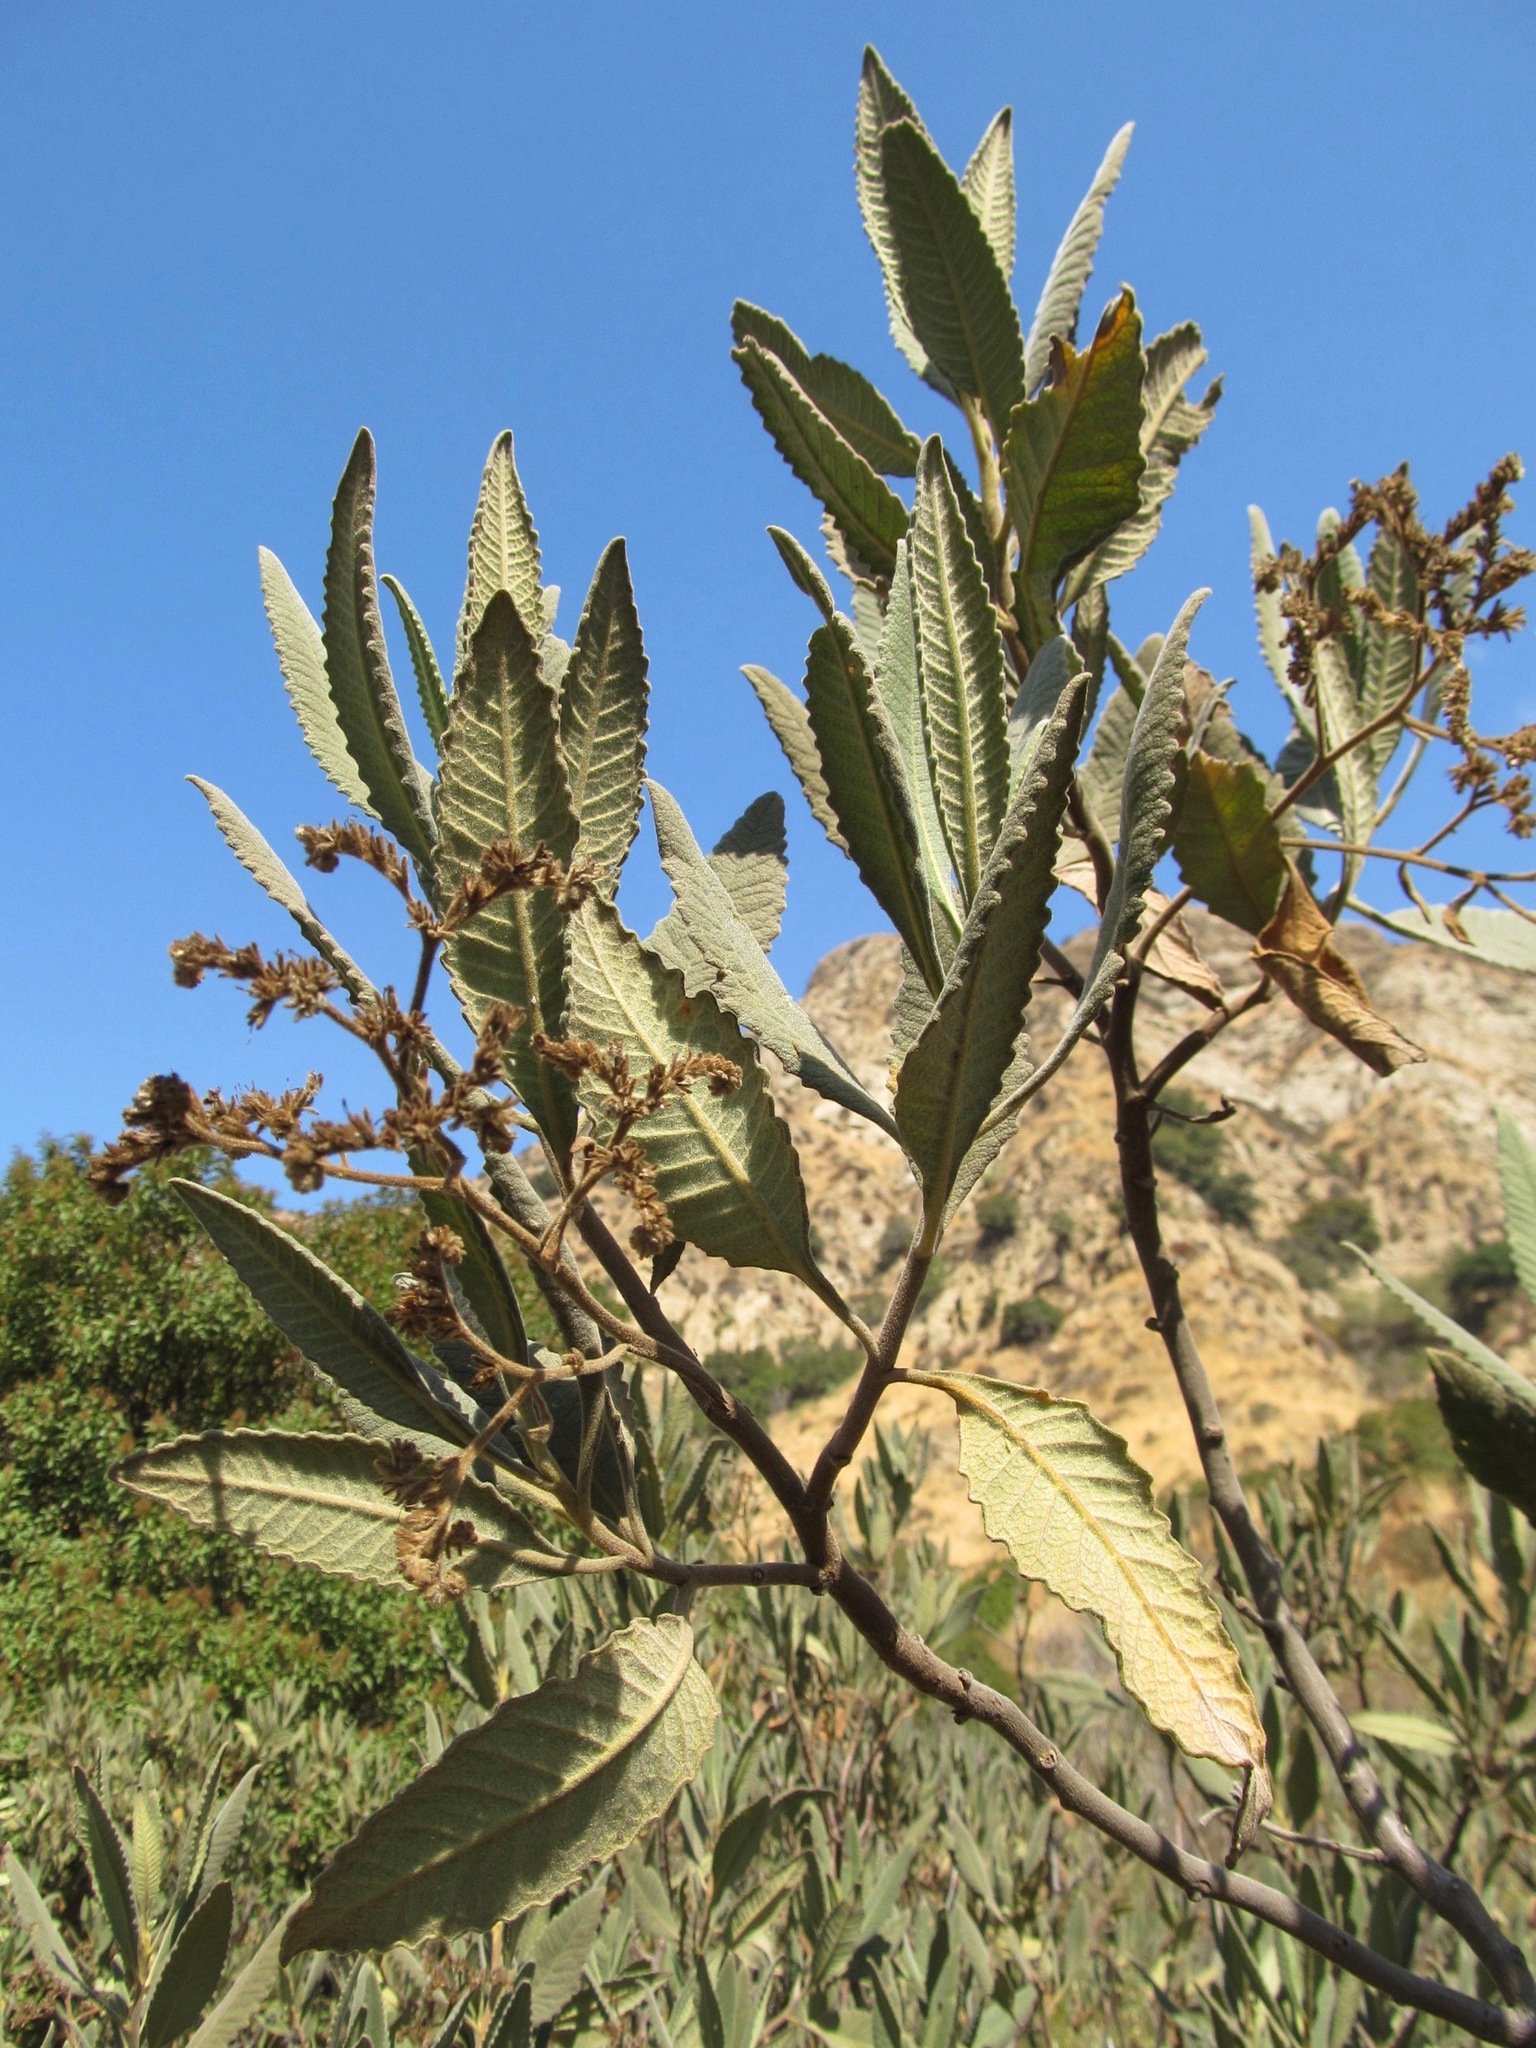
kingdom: Plantae
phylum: Tracheophyta
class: Magnoliopsida
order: Boraginales
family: Namaceae
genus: Eriodictyon
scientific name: Eriodictyon crassifolium
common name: Thick-leaf yerba-santa
